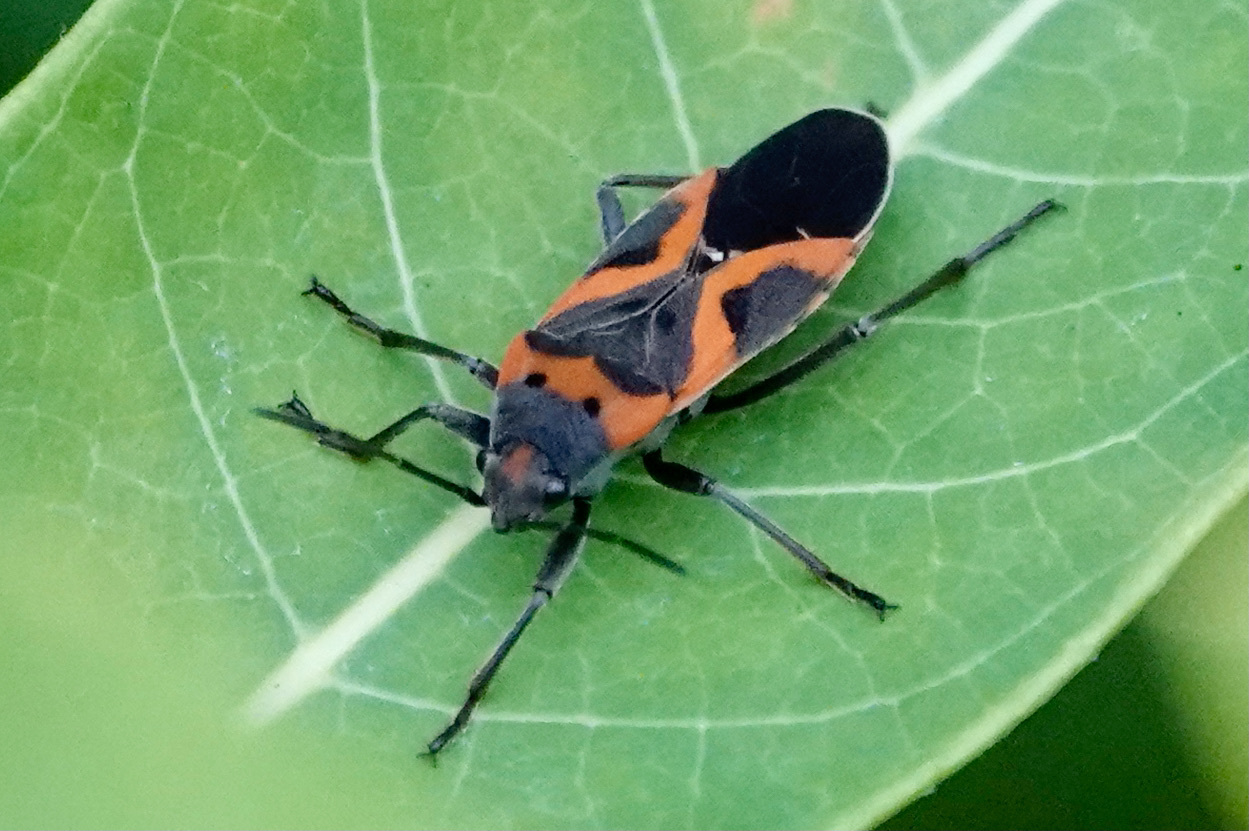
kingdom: Animalia
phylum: Arthropoda
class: Insecta
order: Hemiptera
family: Lygaeidae
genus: Lygaeus
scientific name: Lygaeus kalmii
